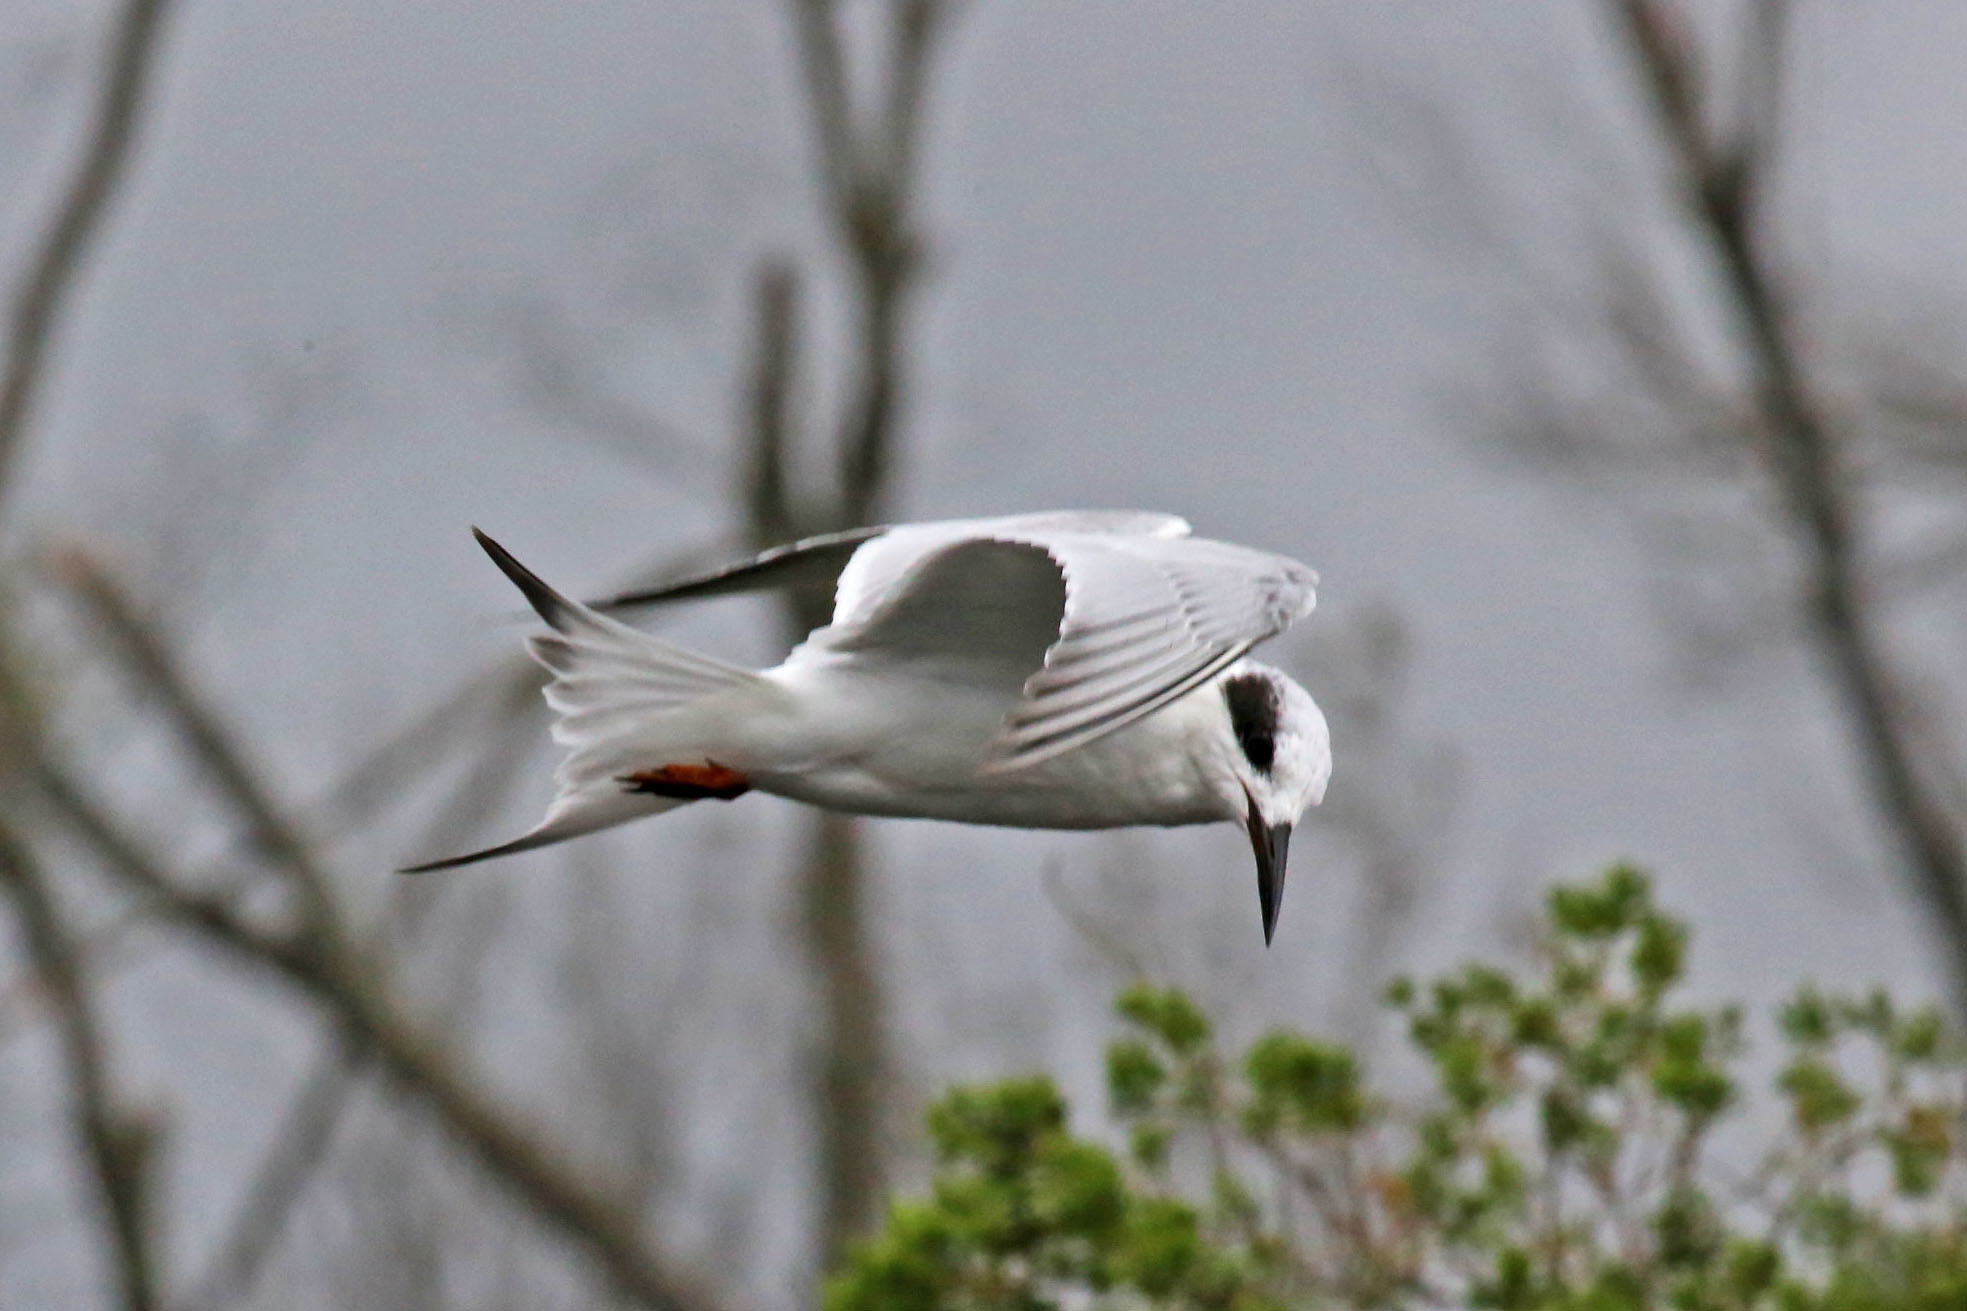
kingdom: Animalia
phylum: Chordata
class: Aves
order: Charadriiformes
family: Laridae
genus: Sterna
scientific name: Sterna forsteri
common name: Forster's tern
